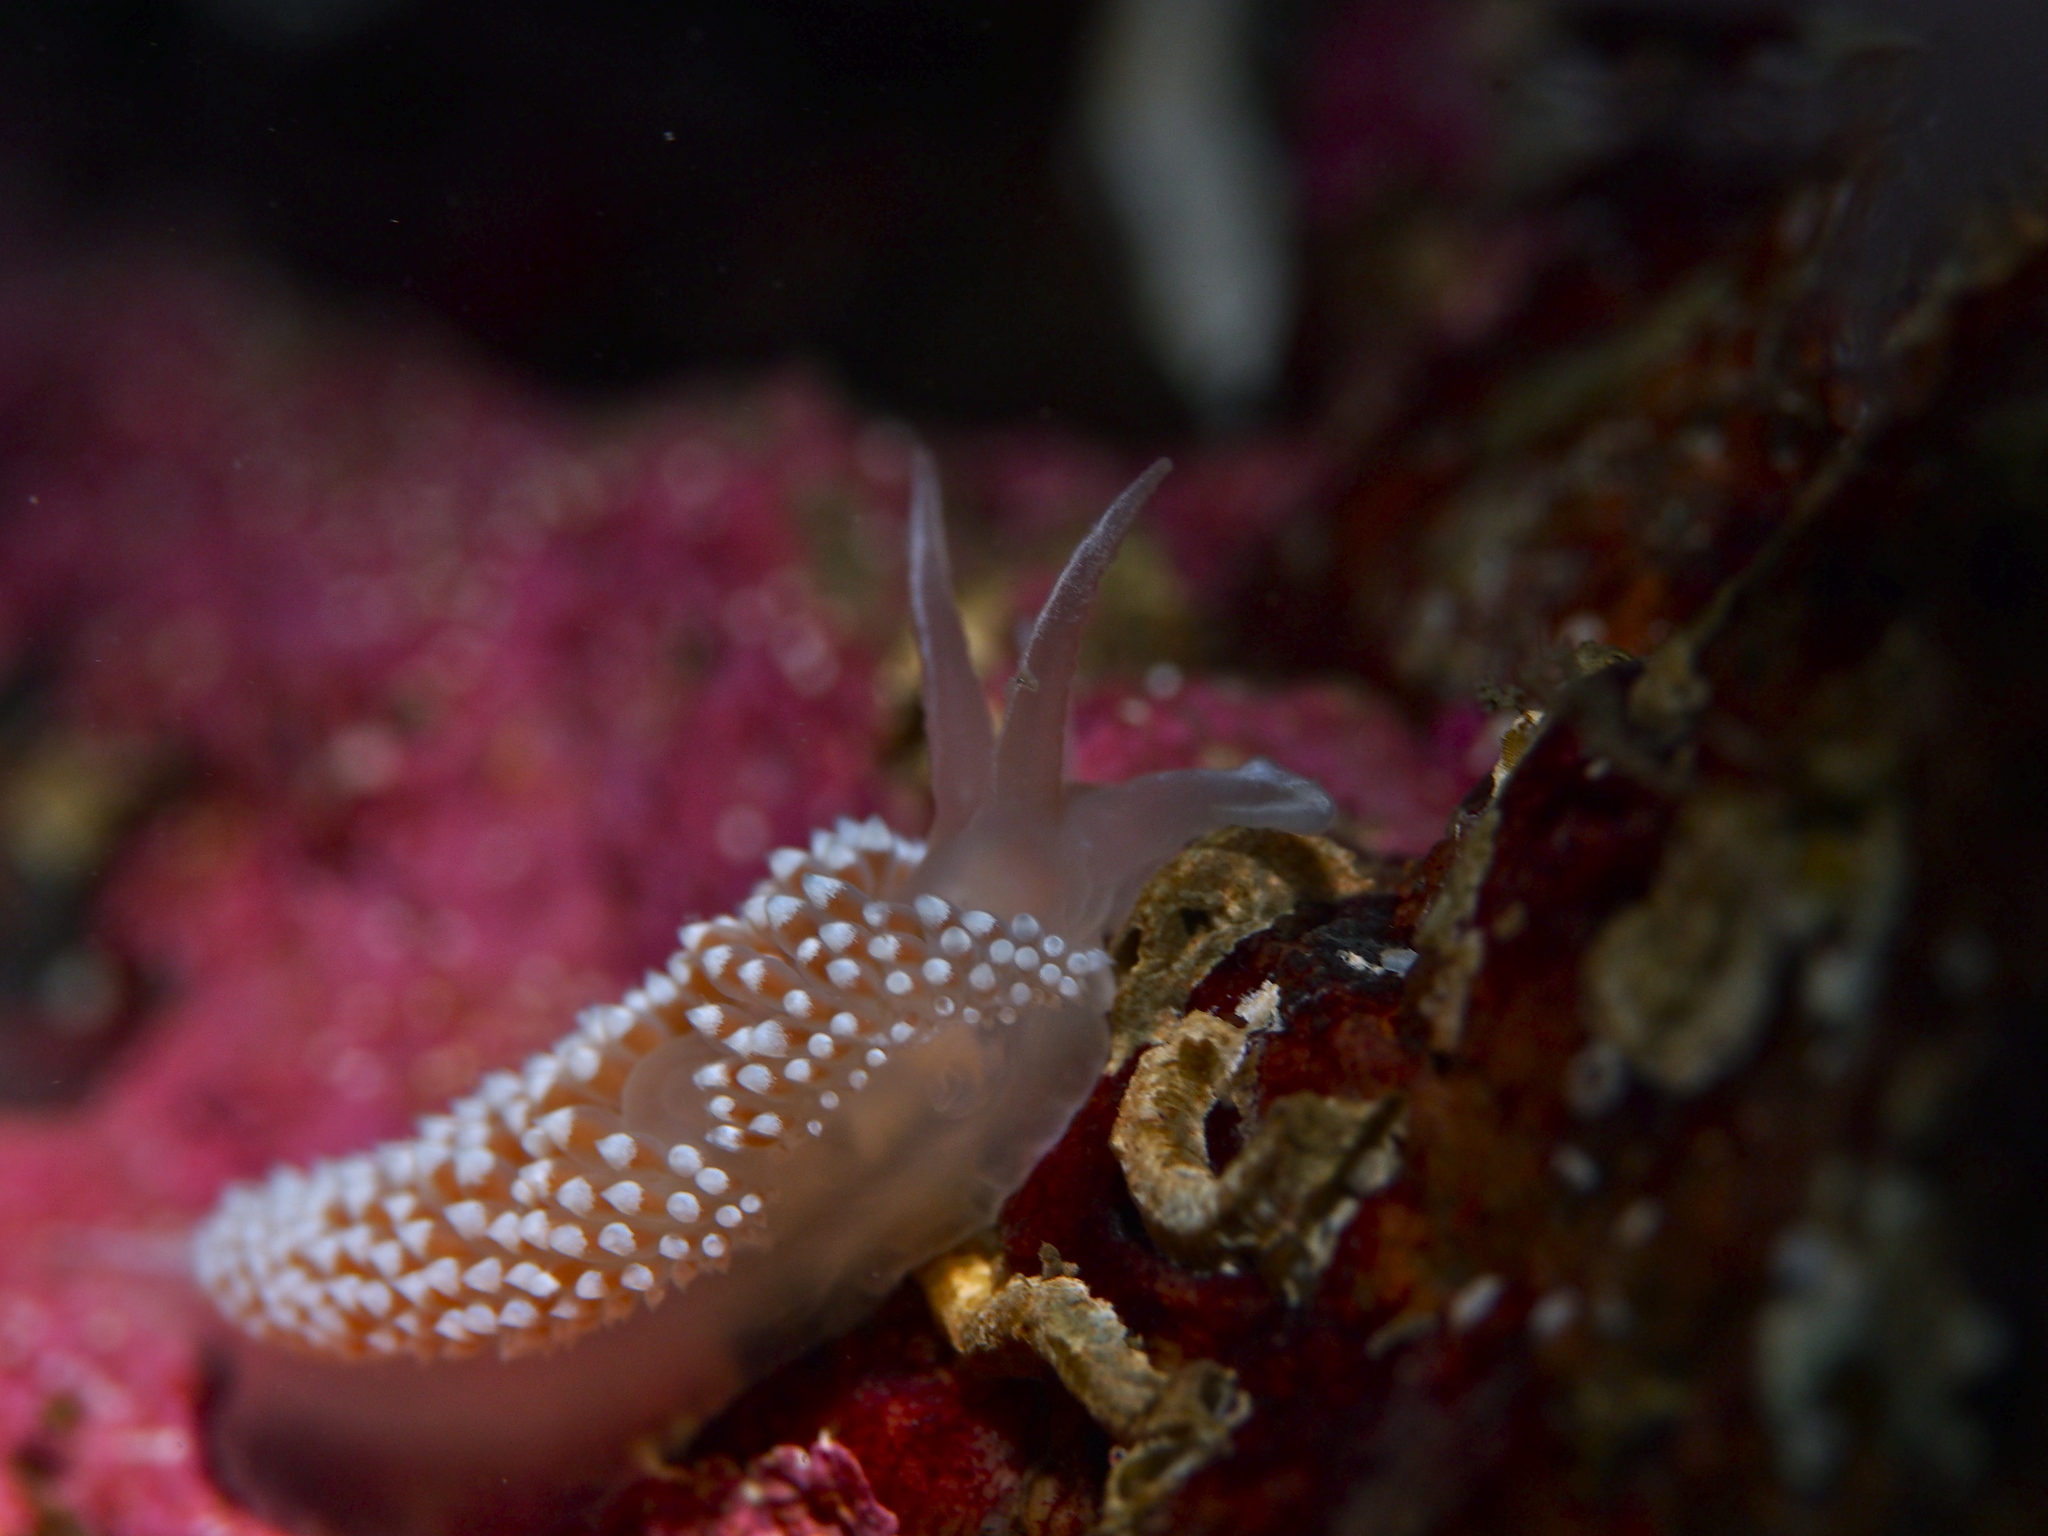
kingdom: Animalia
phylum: Mollusca
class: Gastropoda
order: Nudibranchia
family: Coryphellidae
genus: Coryphella
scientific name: Coryphella verrucosa
